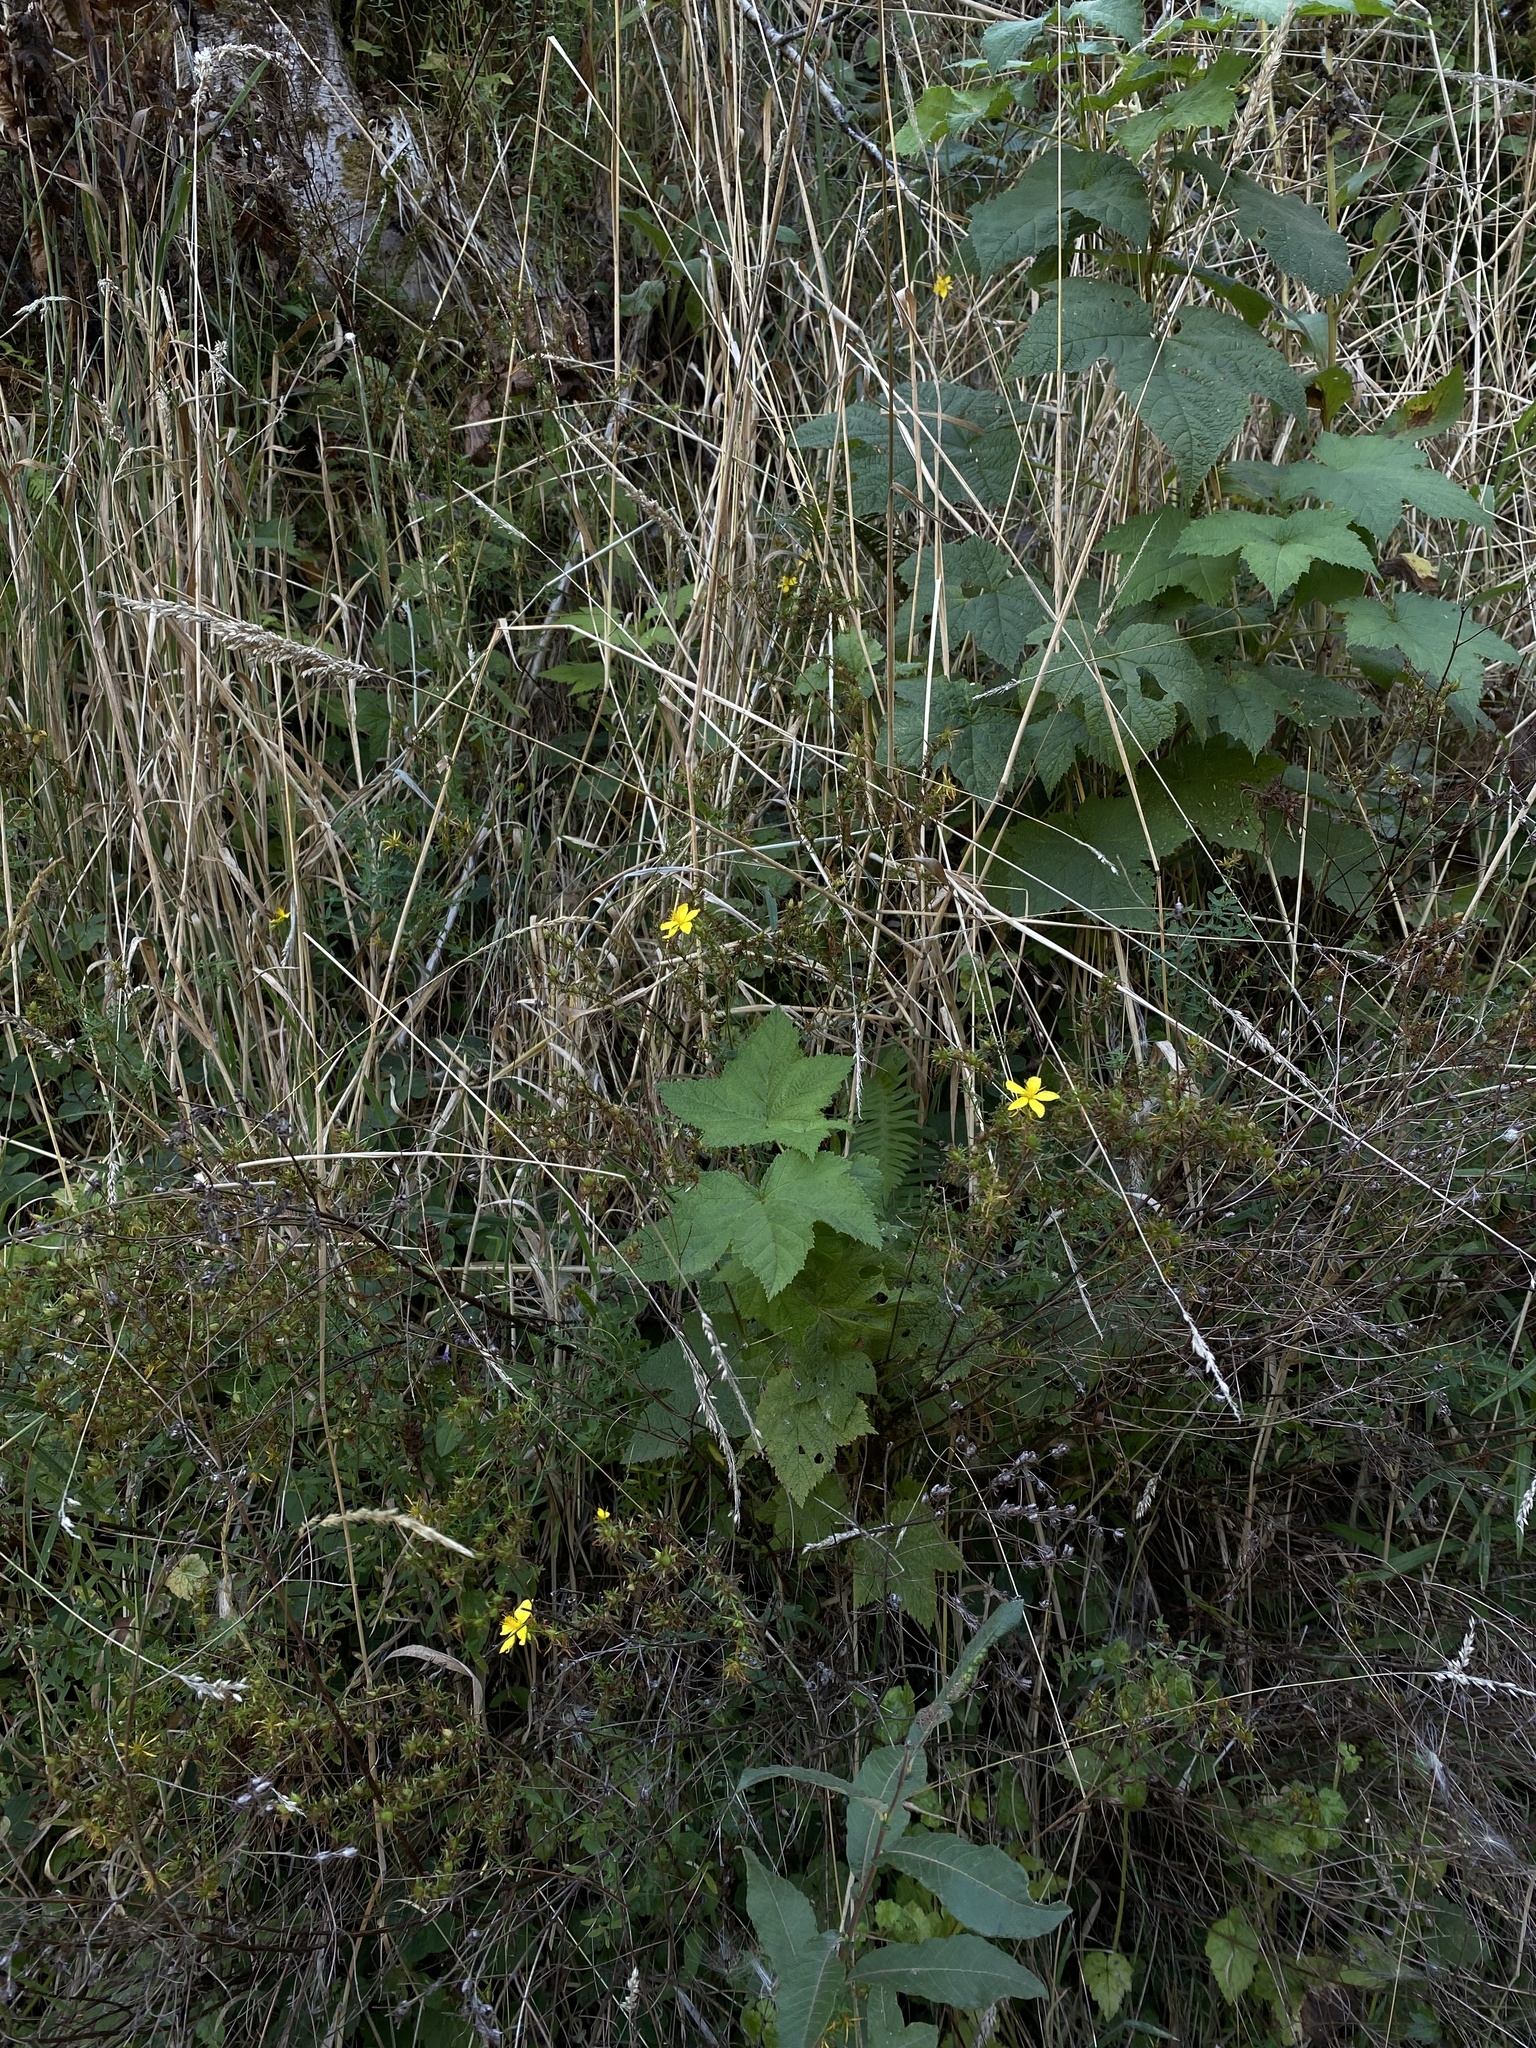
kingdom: Plantae
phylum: Tracheophyta
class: Magnoliopsida
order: Malpighiales
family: Hypericaceae
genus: Hypericum
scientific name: Hypericum perforatum
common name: Common st. johnswort
